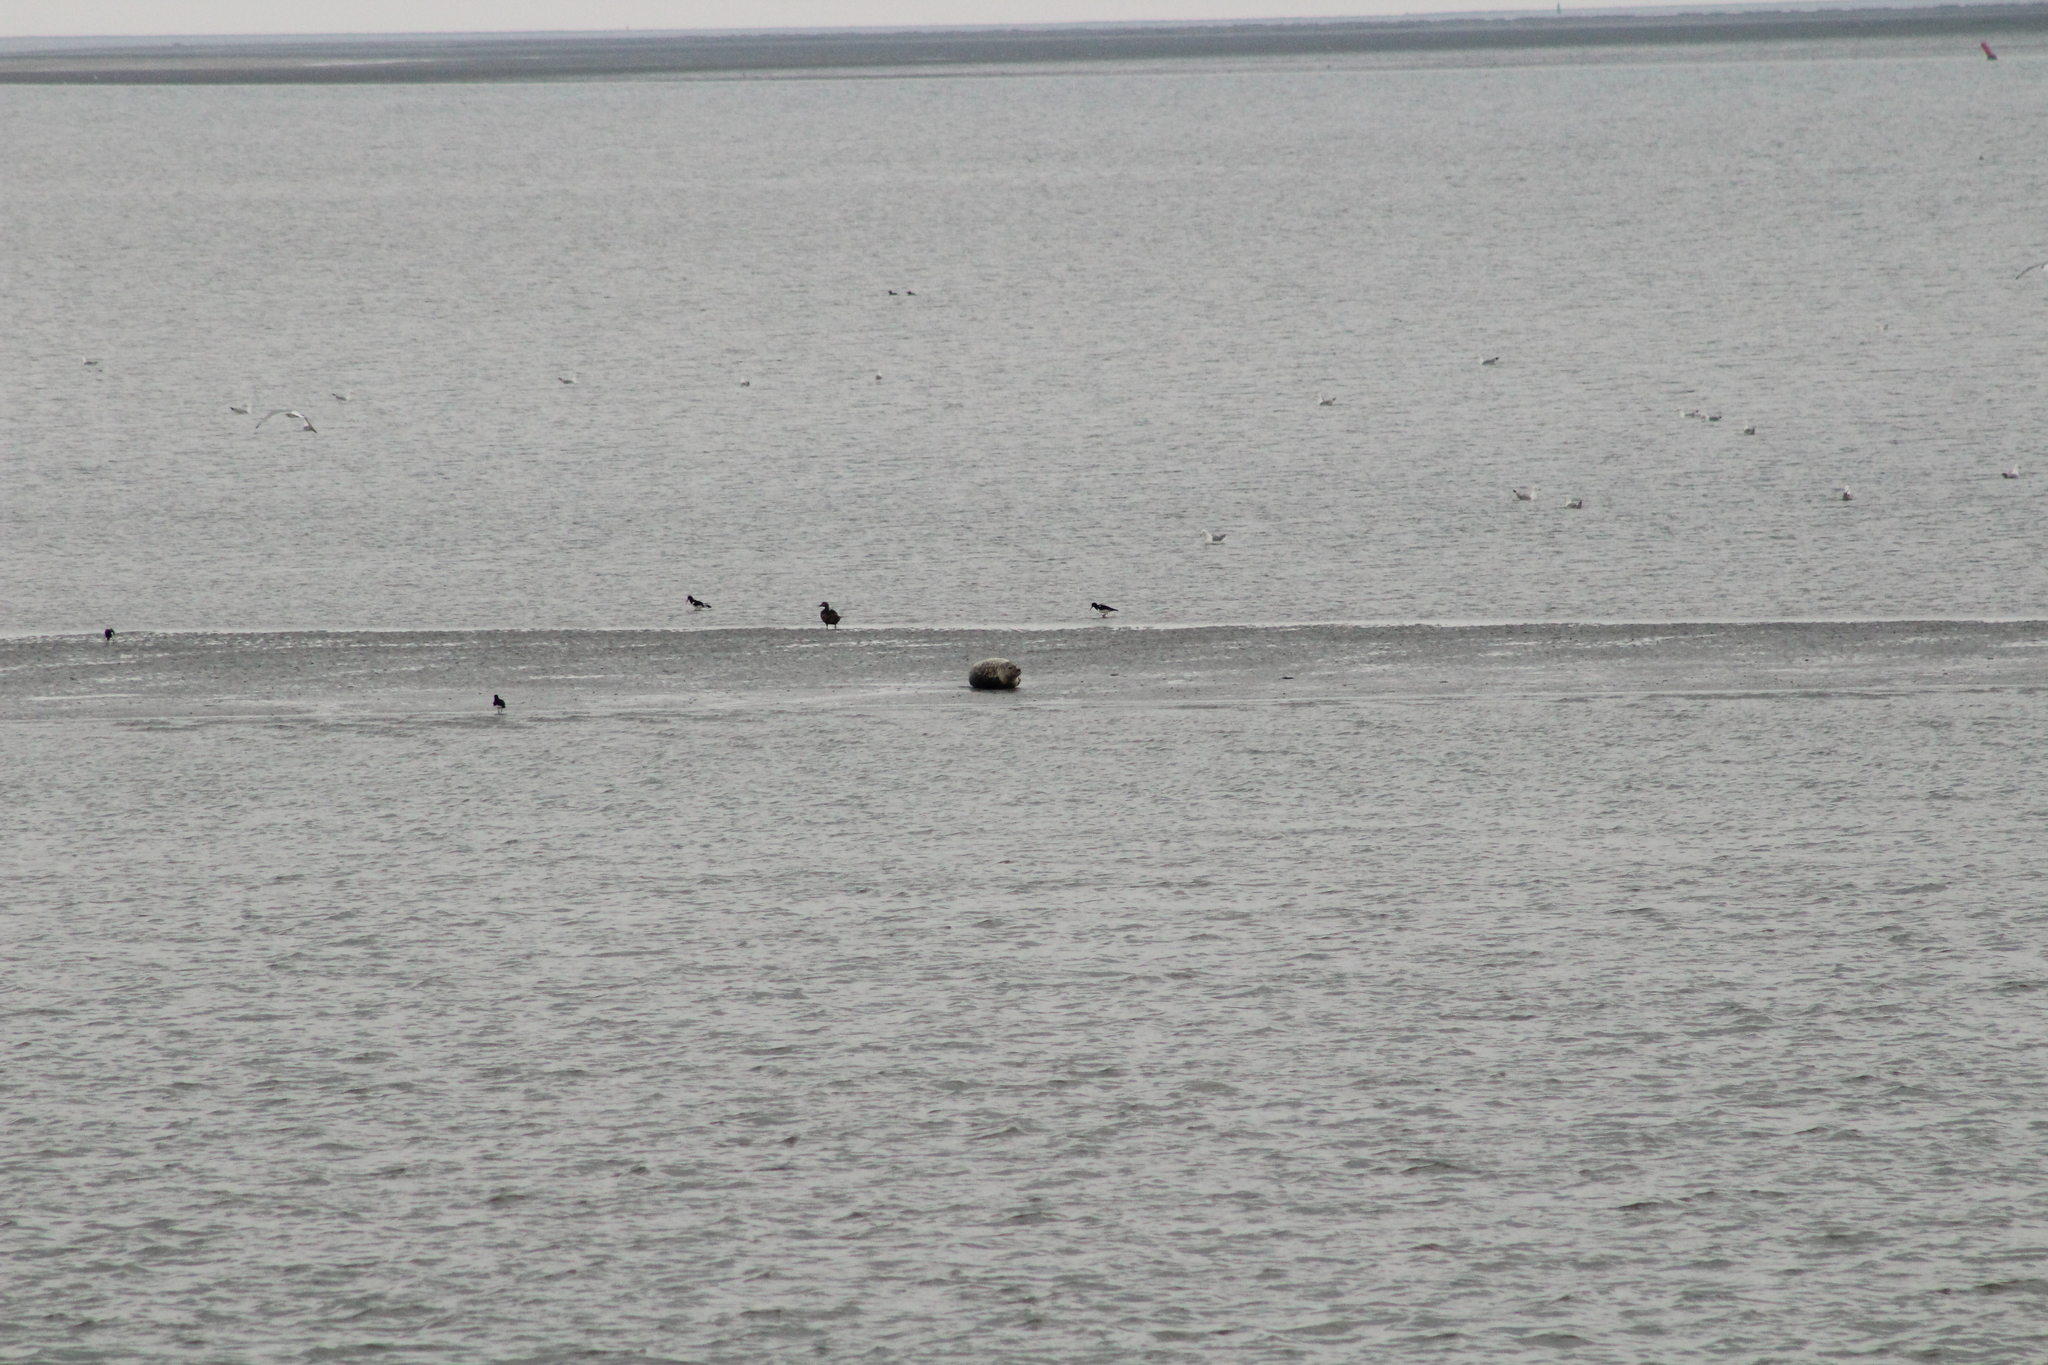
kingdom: Animalia
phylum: Chordata
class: Mammalia
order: Carnivora
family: Phocidae
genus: Phoca
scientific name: Phoca vitulina
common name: Harbor seal
